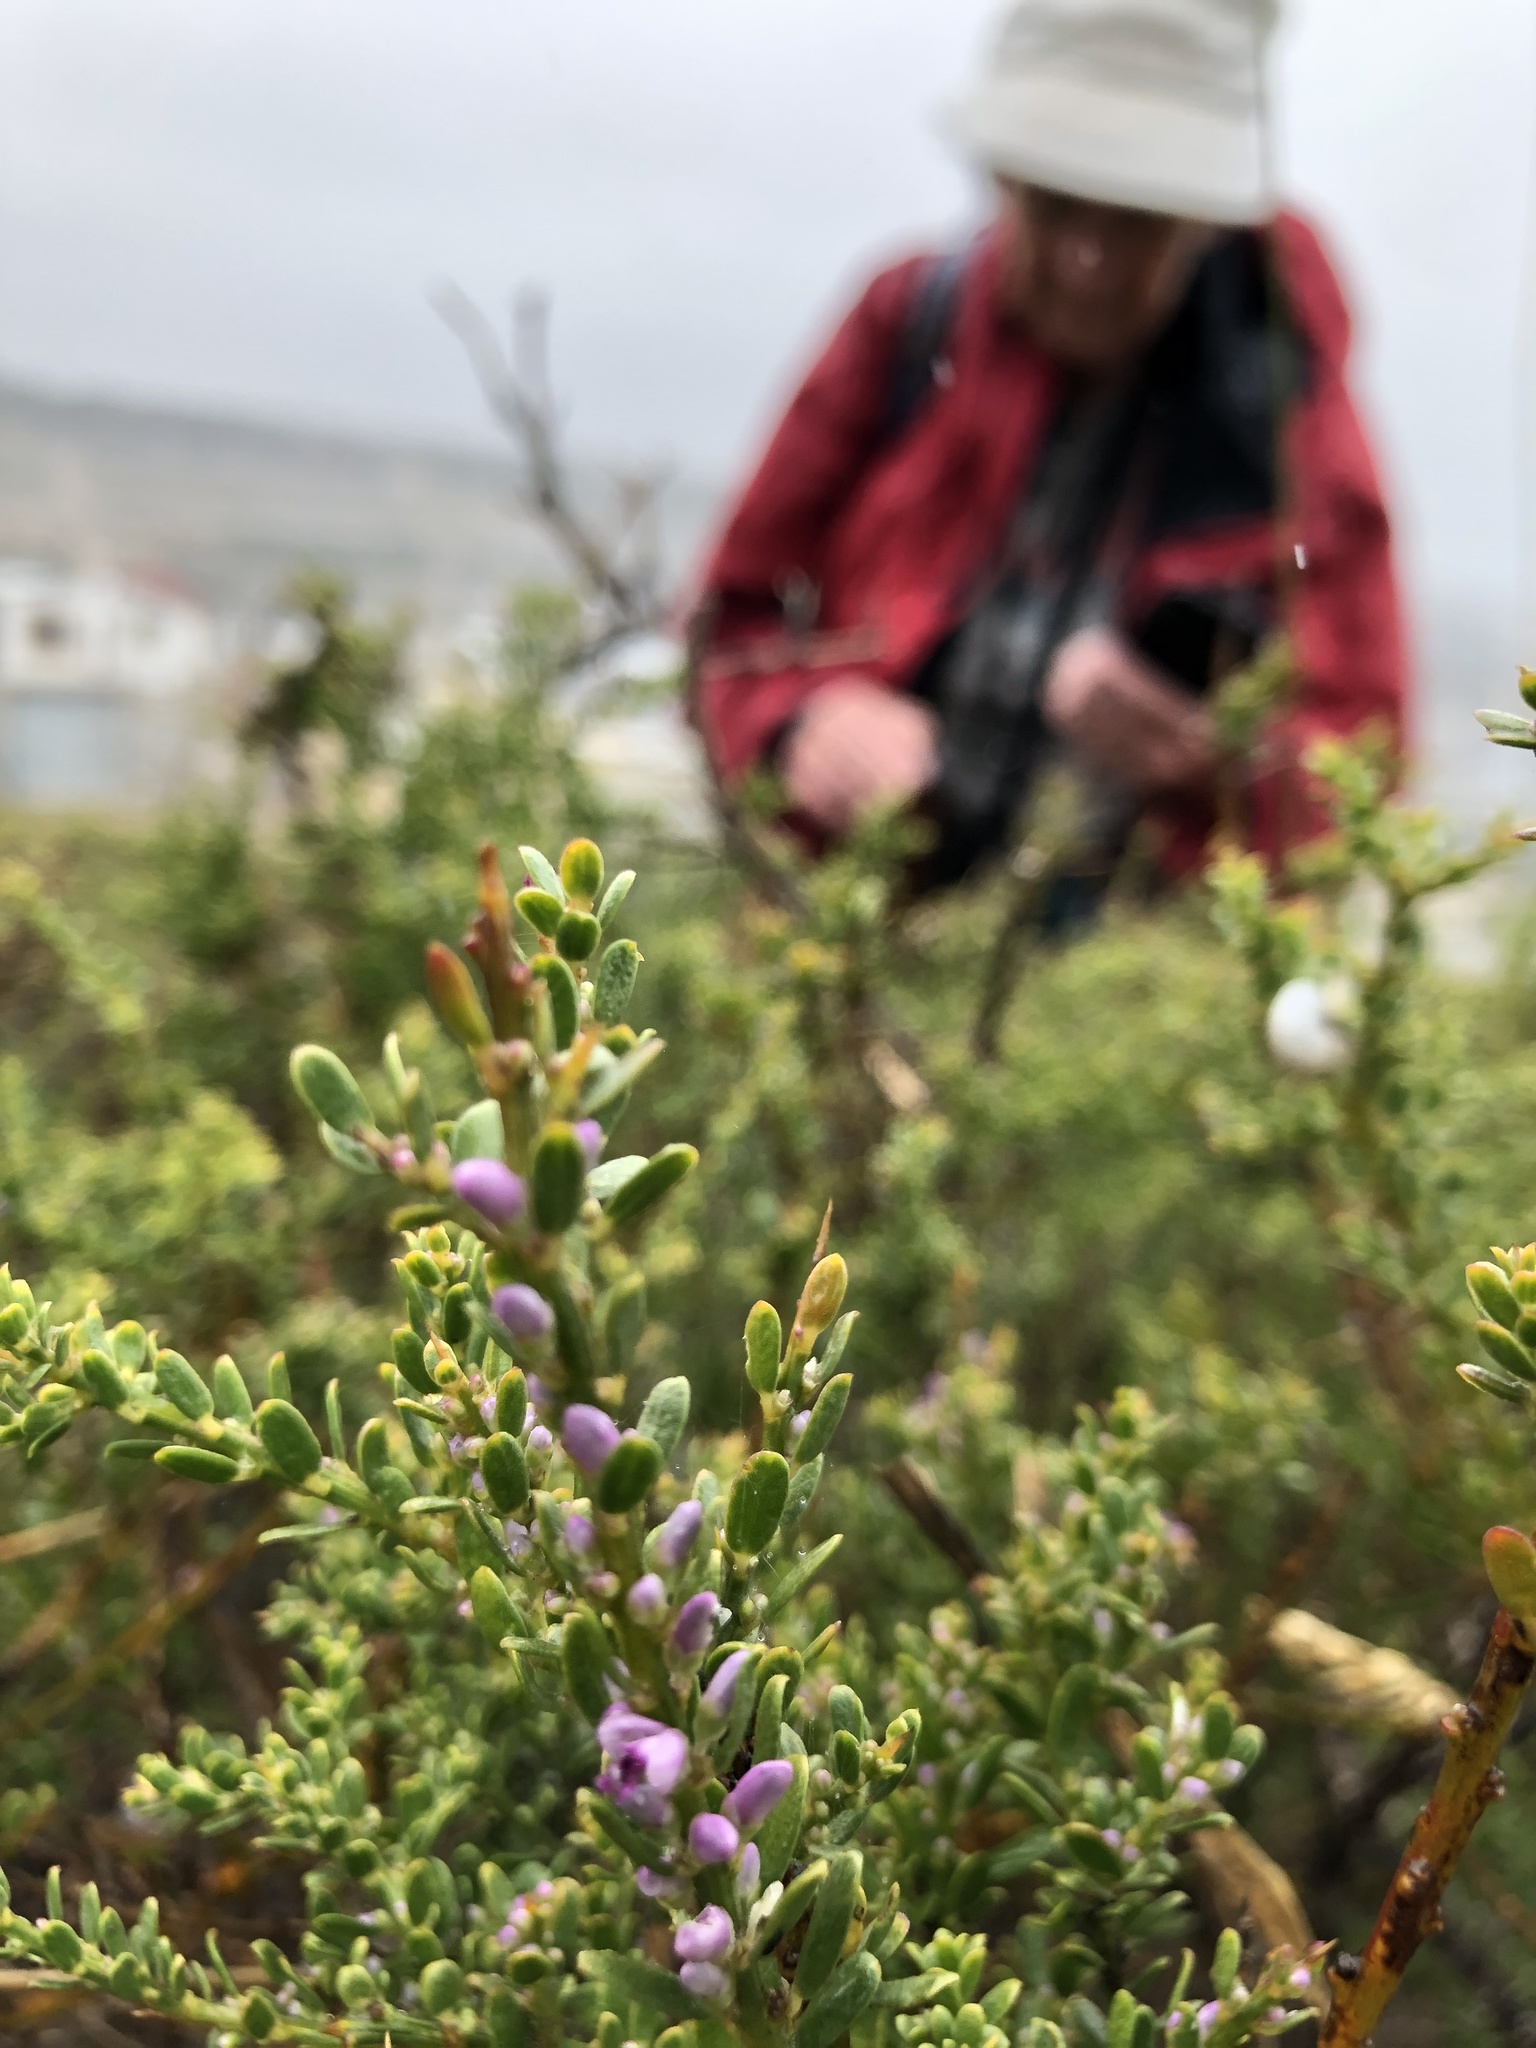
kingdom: Plantae
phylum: Tracheophyta
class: Magnoliopsida
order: Fabales
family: Polygalaceae
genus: Muraltia
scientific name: Muraltia spinosa
